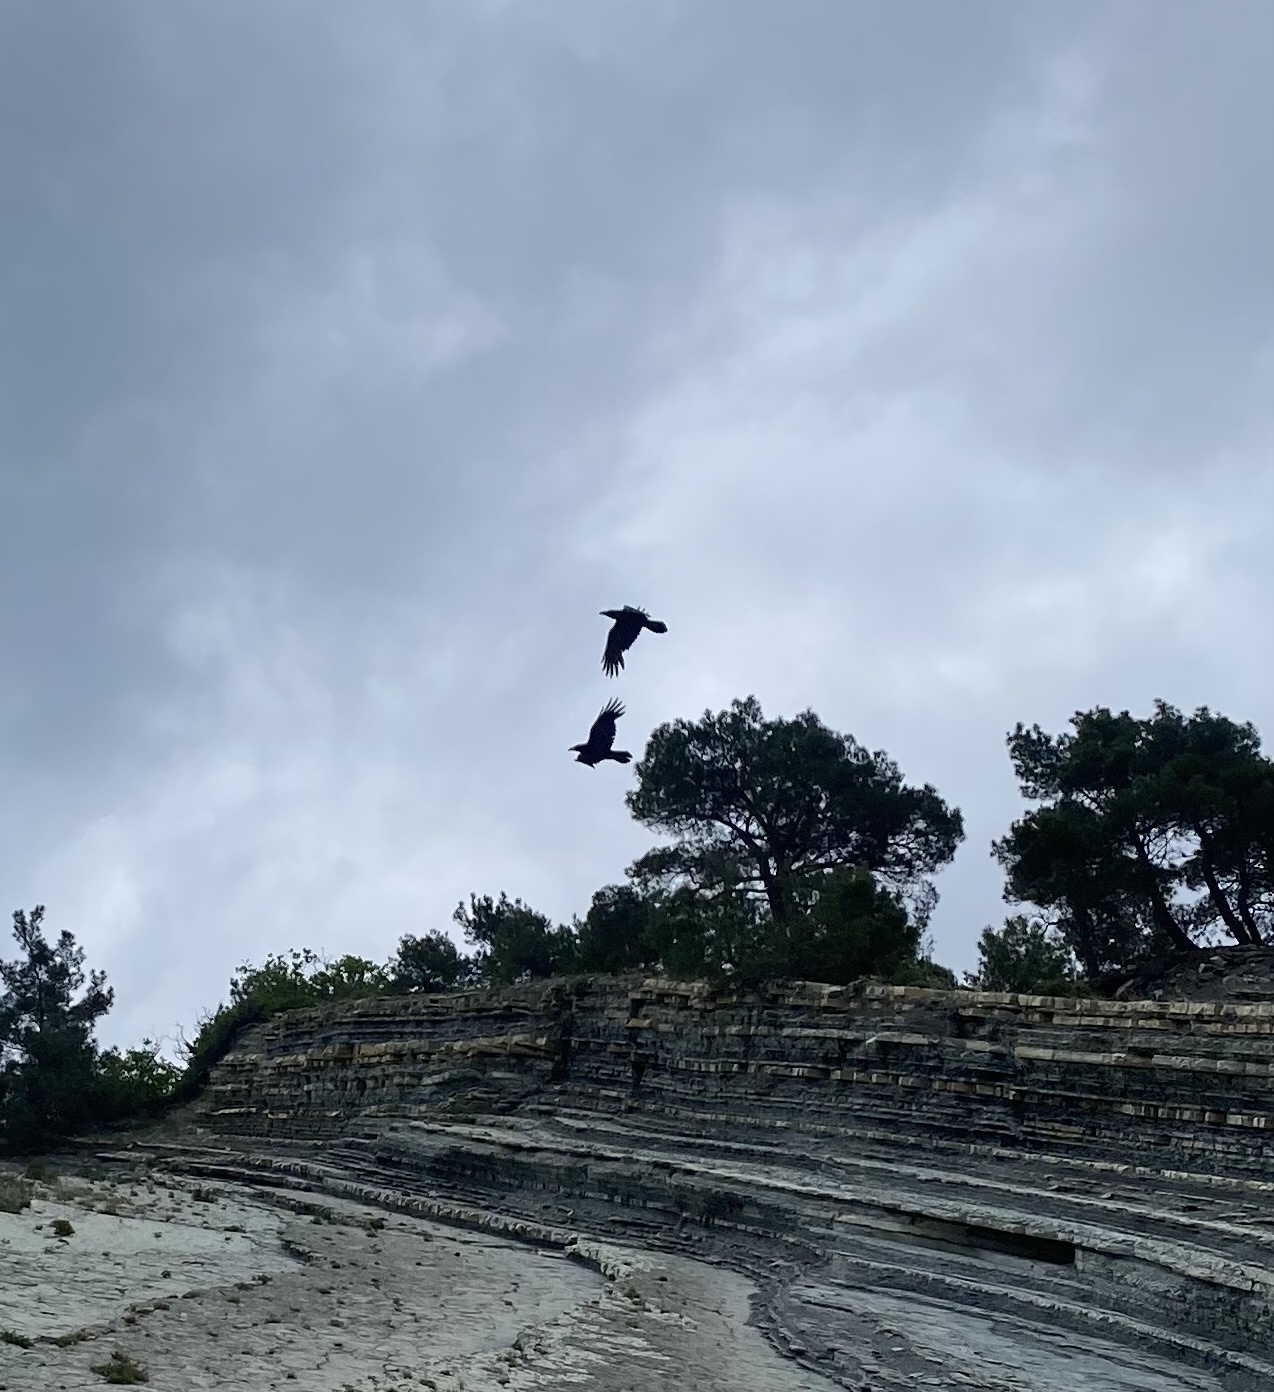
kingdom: Animalia
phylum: Chordata
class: Aves
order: Passeriformes
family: Corvidae
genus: Corvus
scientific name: Corvus corax
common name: Common raven
